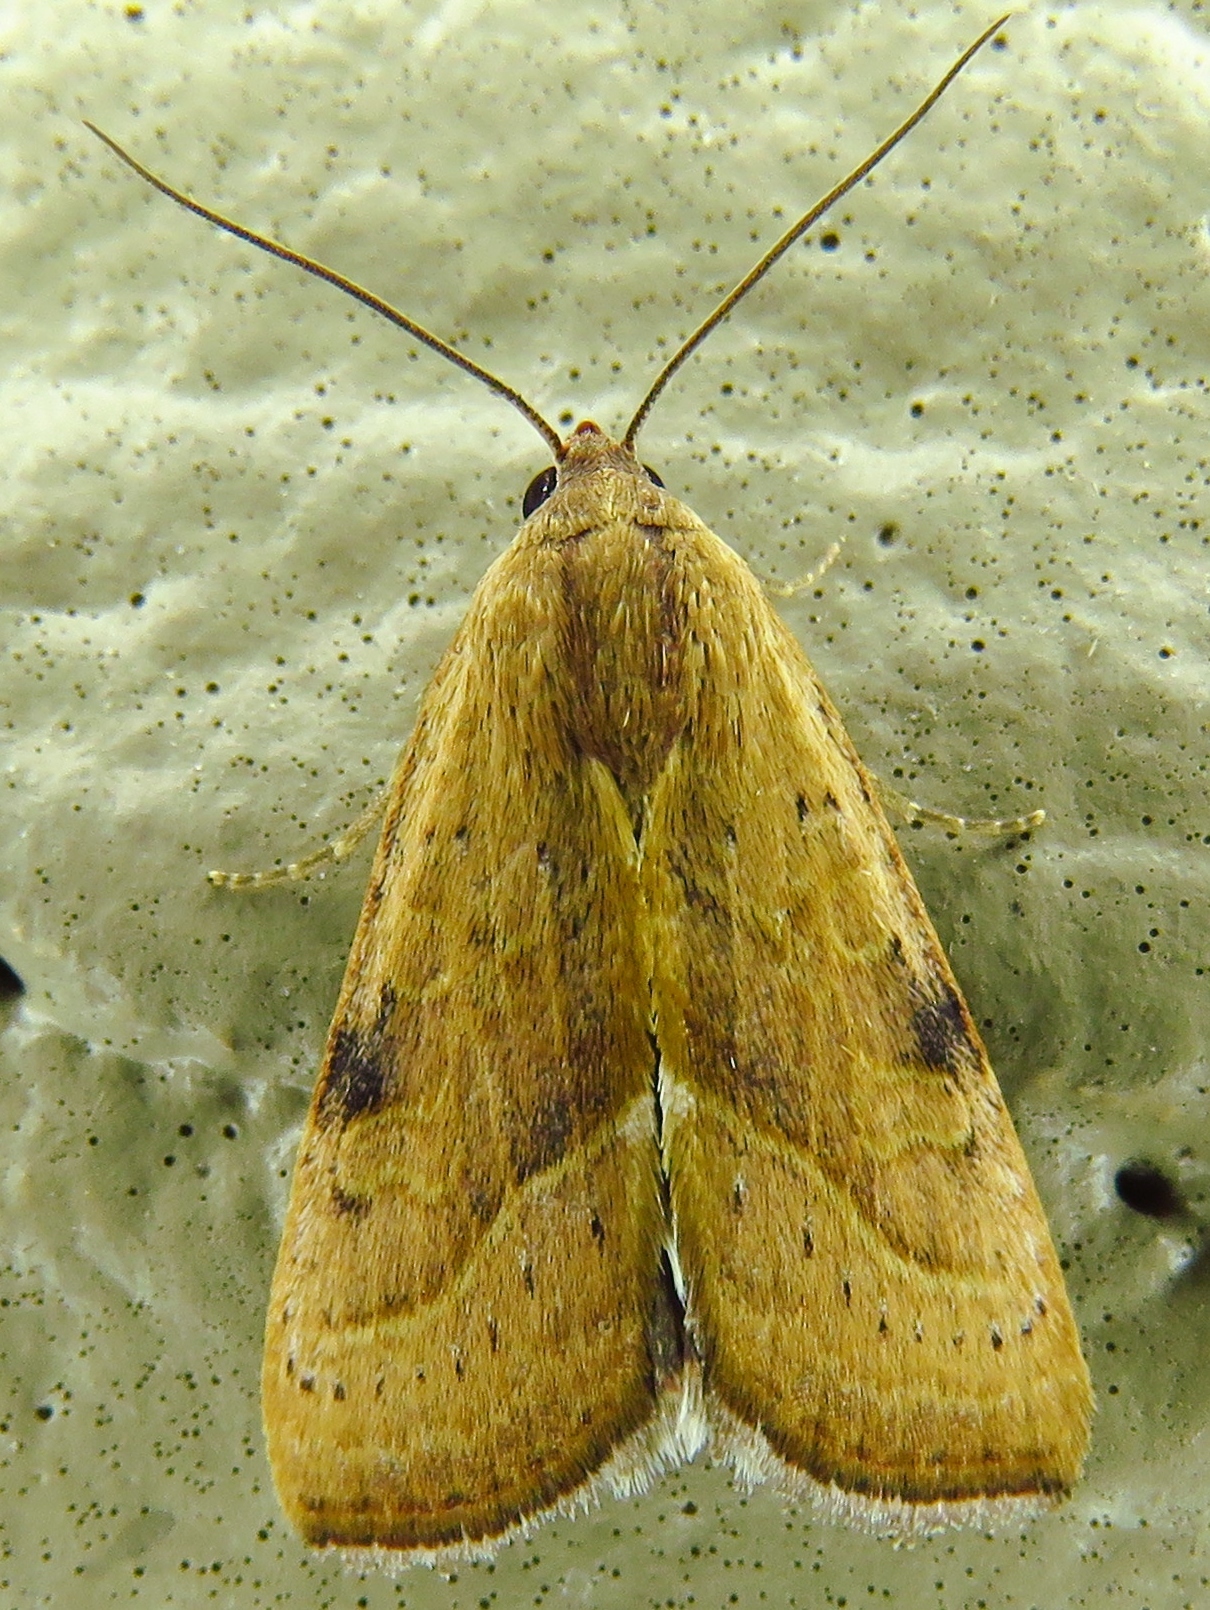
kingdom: Animalia
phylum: Arthropoda
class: Insecta
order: Lepidoptera
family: Noctuidae
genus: Galgula
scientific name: Galgula partita
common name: Wedgeling
